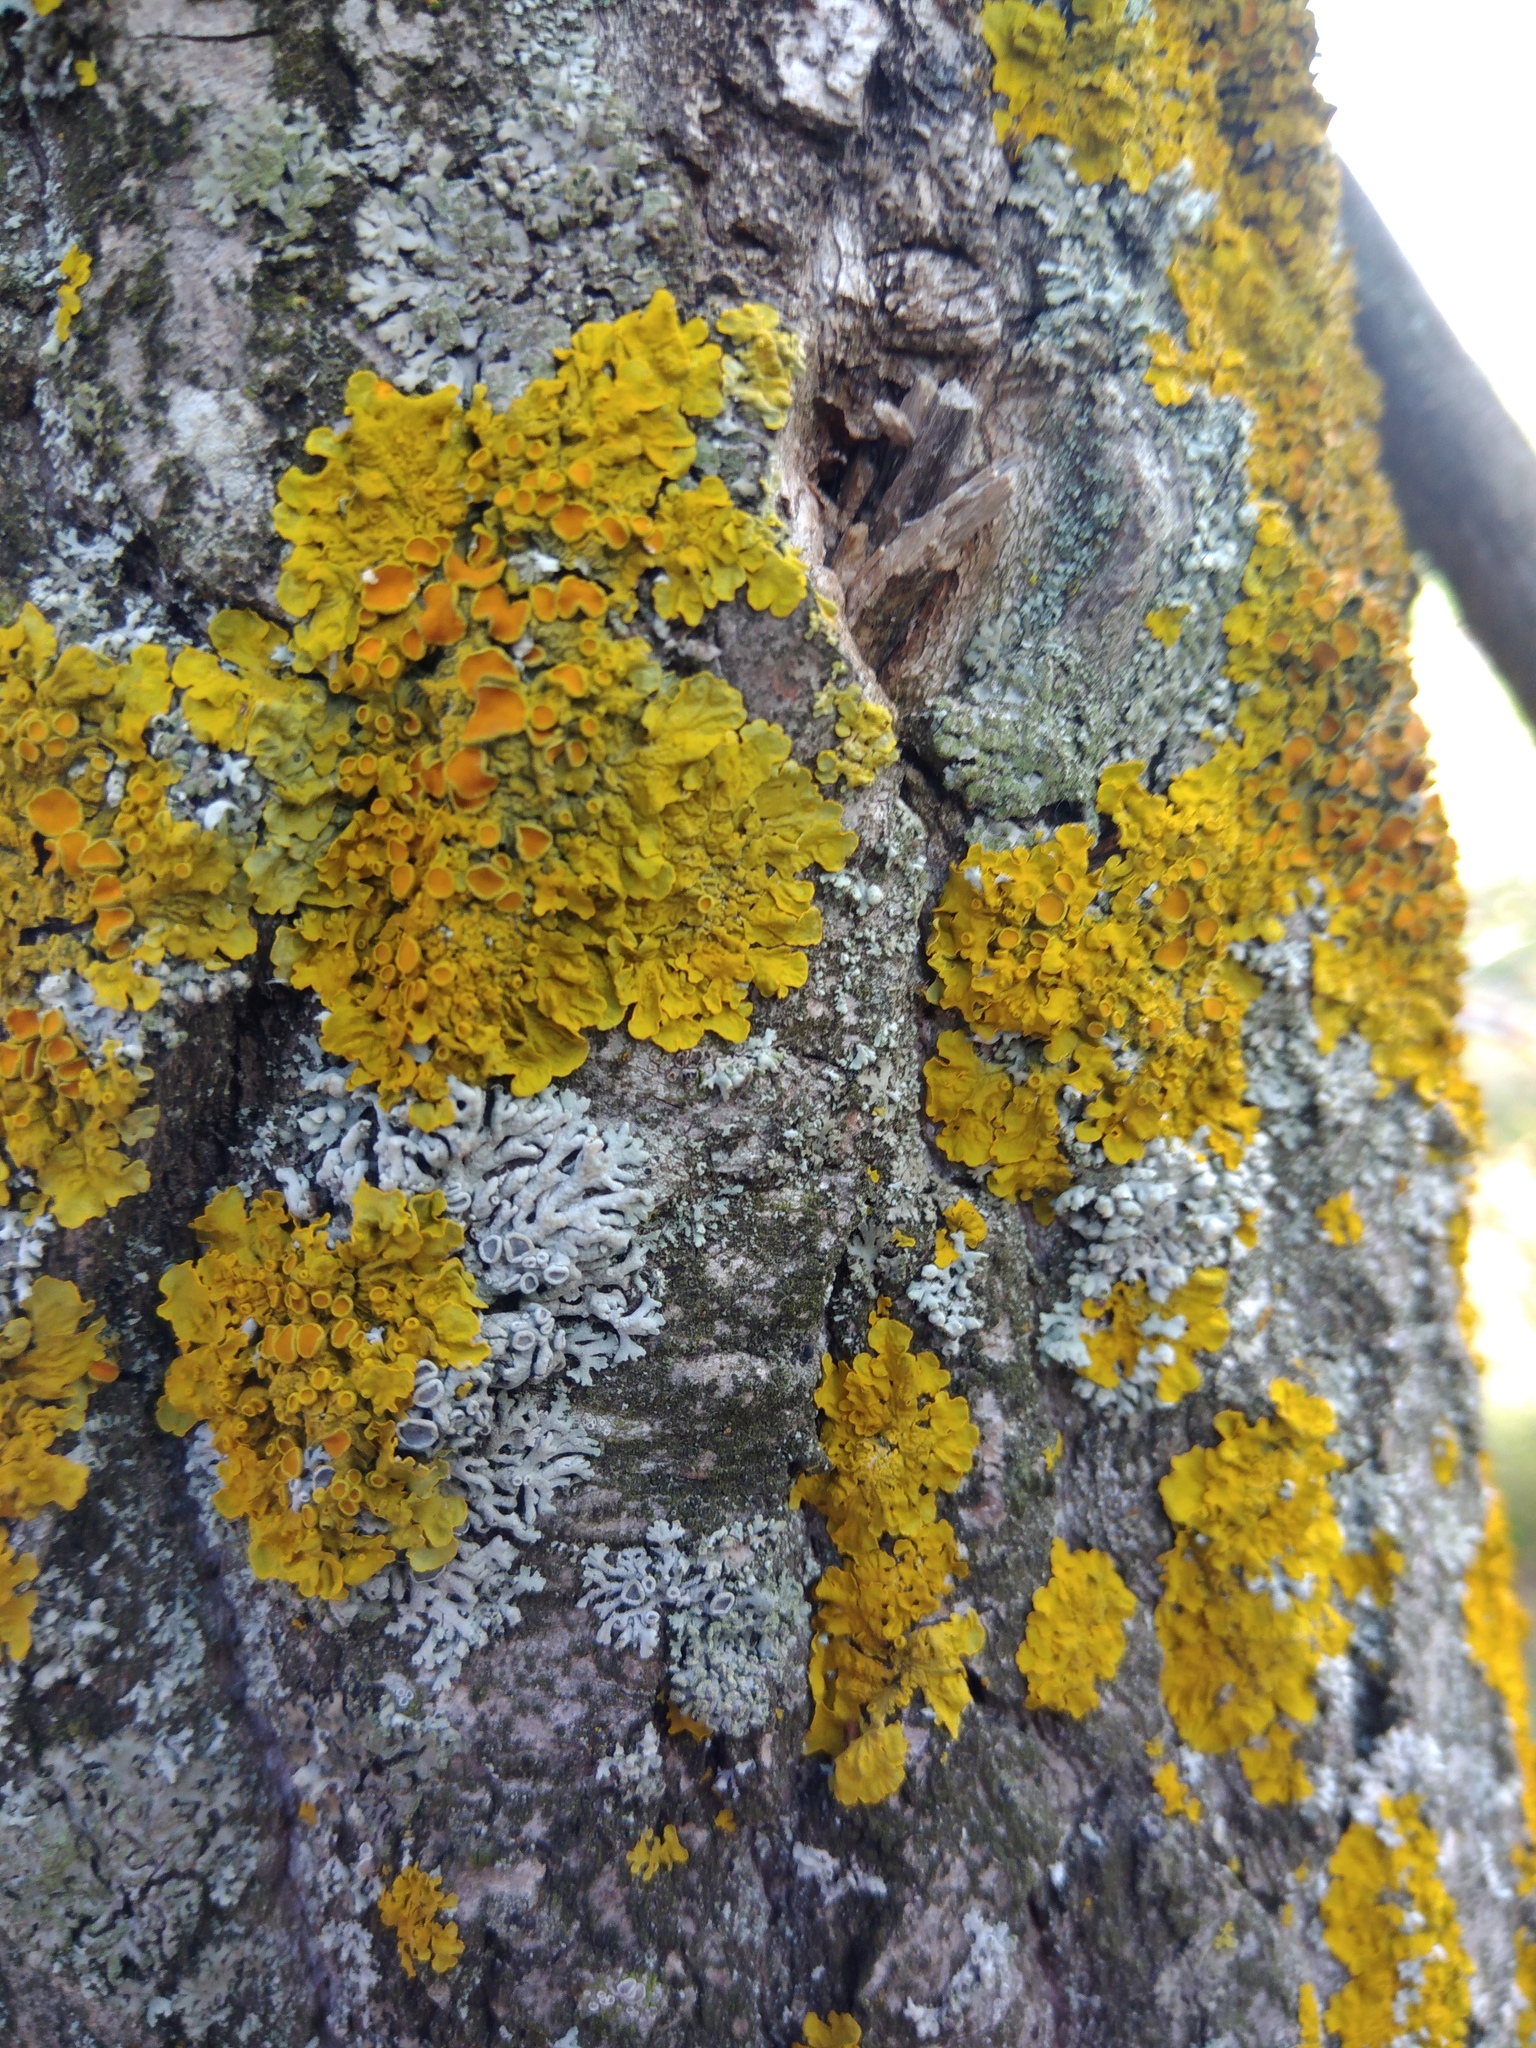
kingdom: Fungi
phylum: Ascomycota
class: Lecanoromycetes
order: Caliciales
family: Physciaceae
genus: Physcia
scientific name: Physcia stellaris
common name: Star rosette lichen
